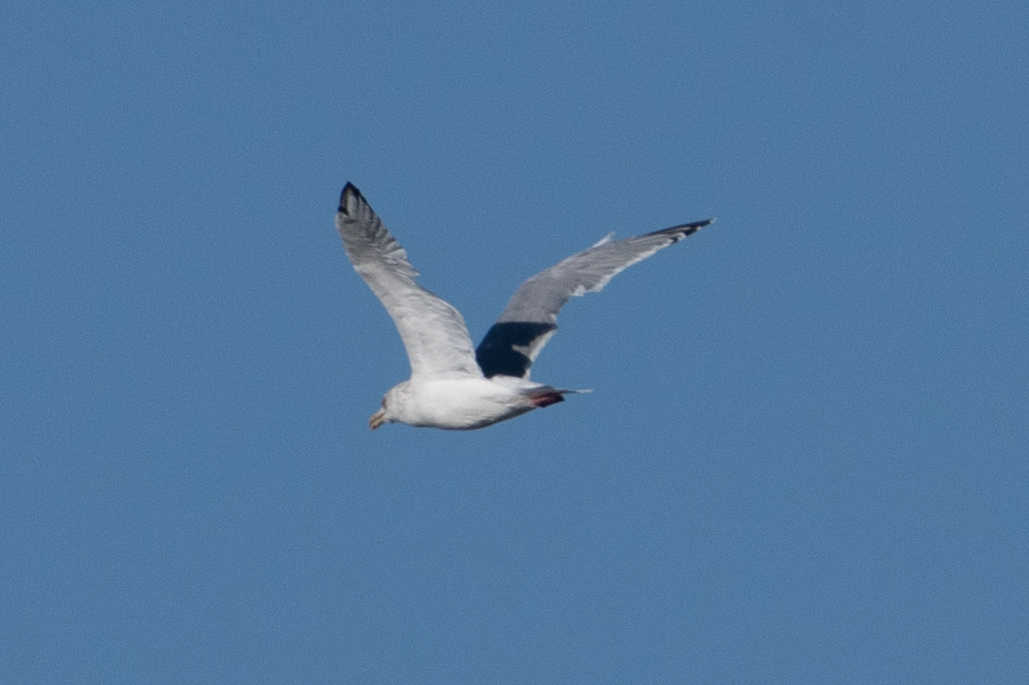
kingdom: Animalia
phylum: Chordata
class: Aves
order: Charadriiformes
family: Laridae
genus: Larus
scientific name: Larus argentatus
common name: Herring gull
